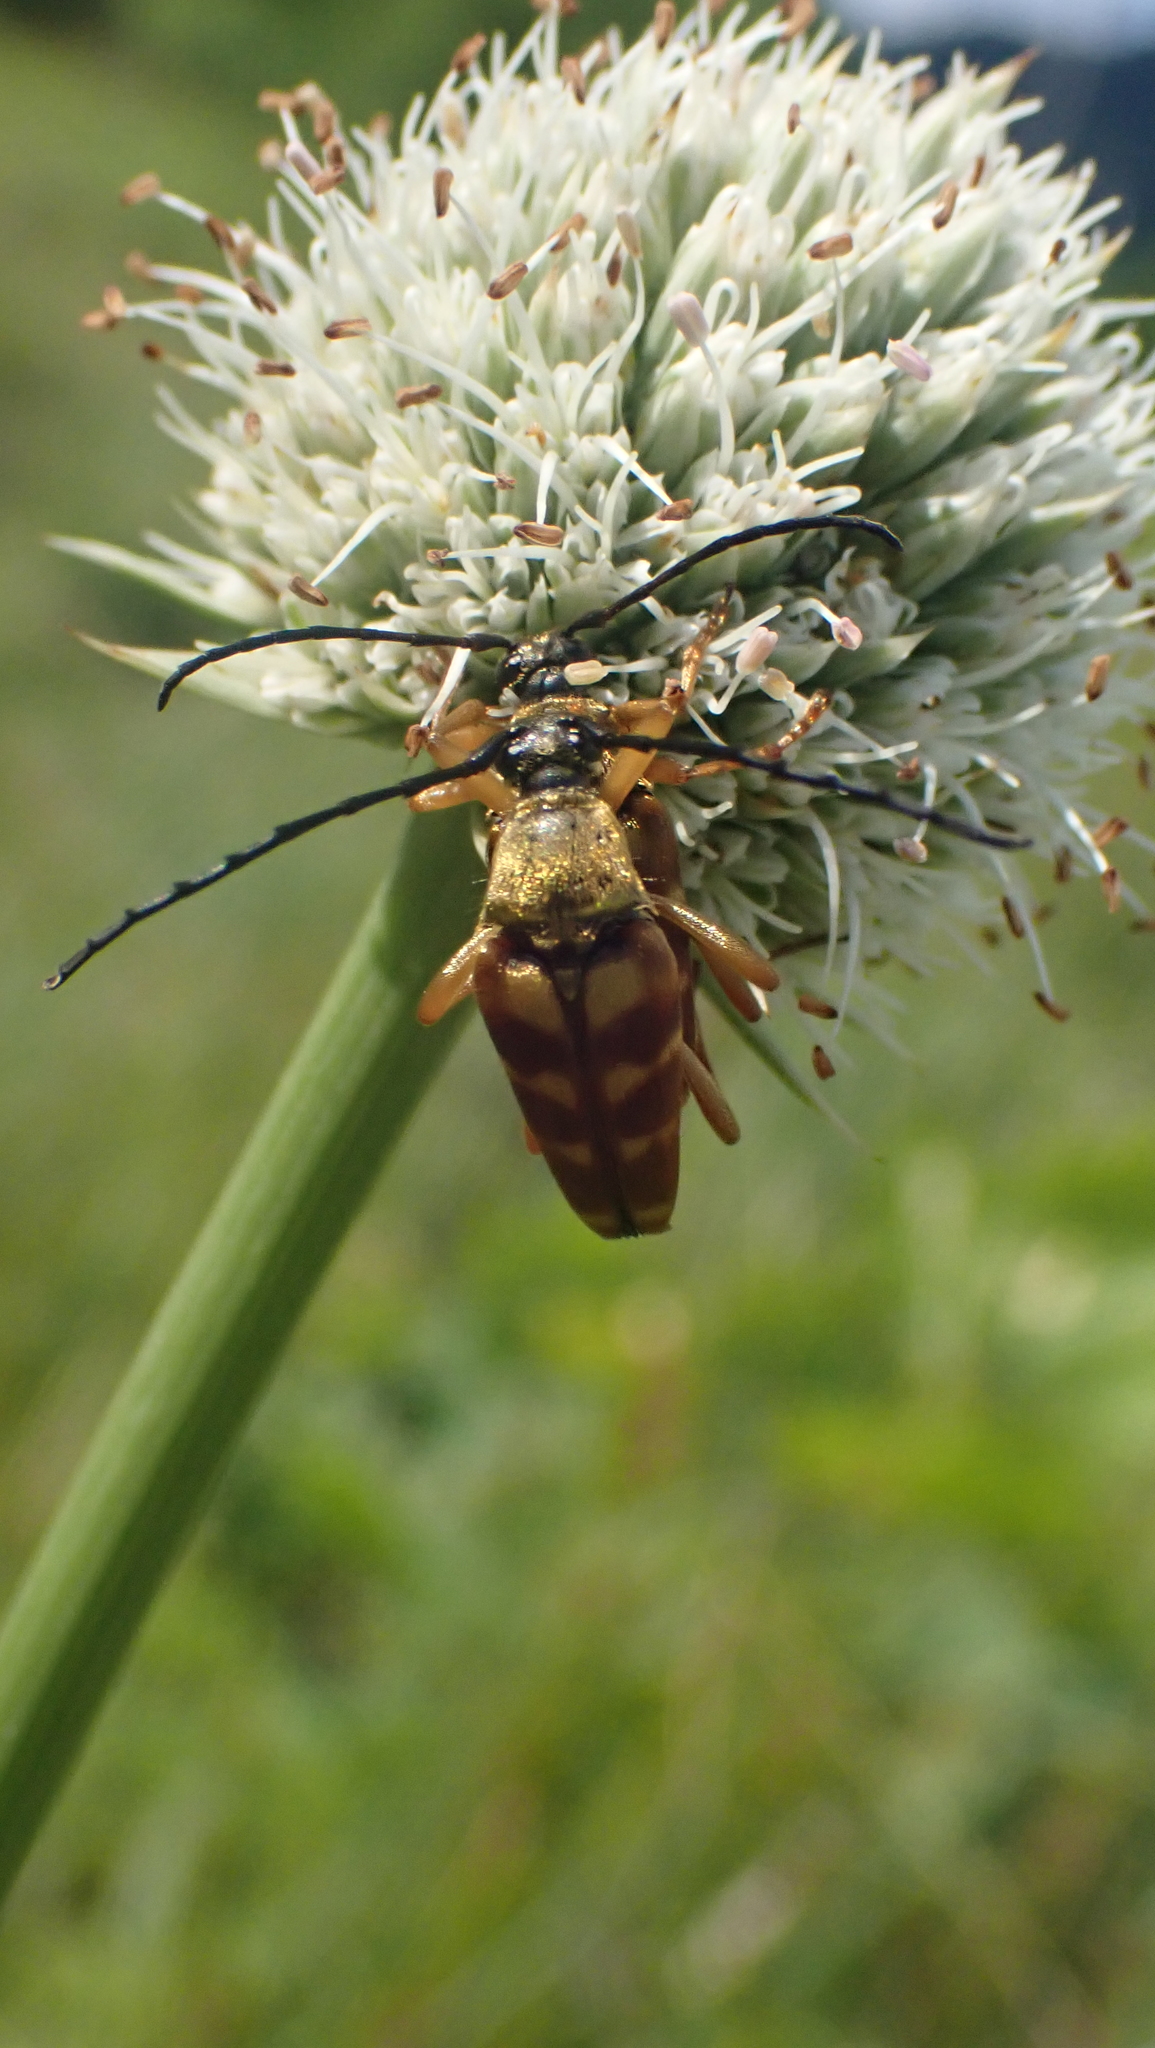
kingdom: Animalia
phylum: Arthropoda
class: Insecta
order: Coleoptera
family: Cerambycidae
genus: Typocerus
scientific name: Typocerus velutinus
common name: Banded longhorn beetle
